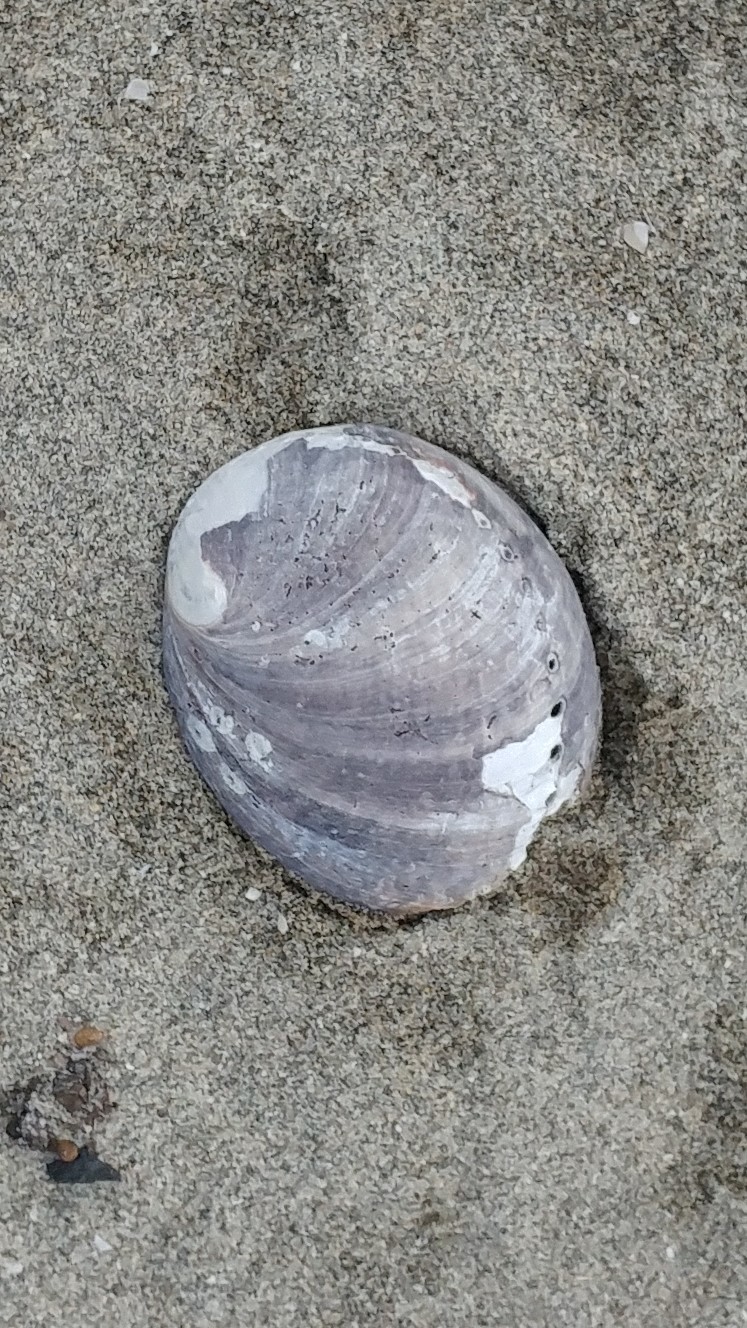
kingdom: Animalia
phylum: Mollusca
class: Gastropoda
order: Lepetellida
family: Haliotidae
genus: Haliotis
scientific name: Haliotis cracherodii
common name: Black abalone
